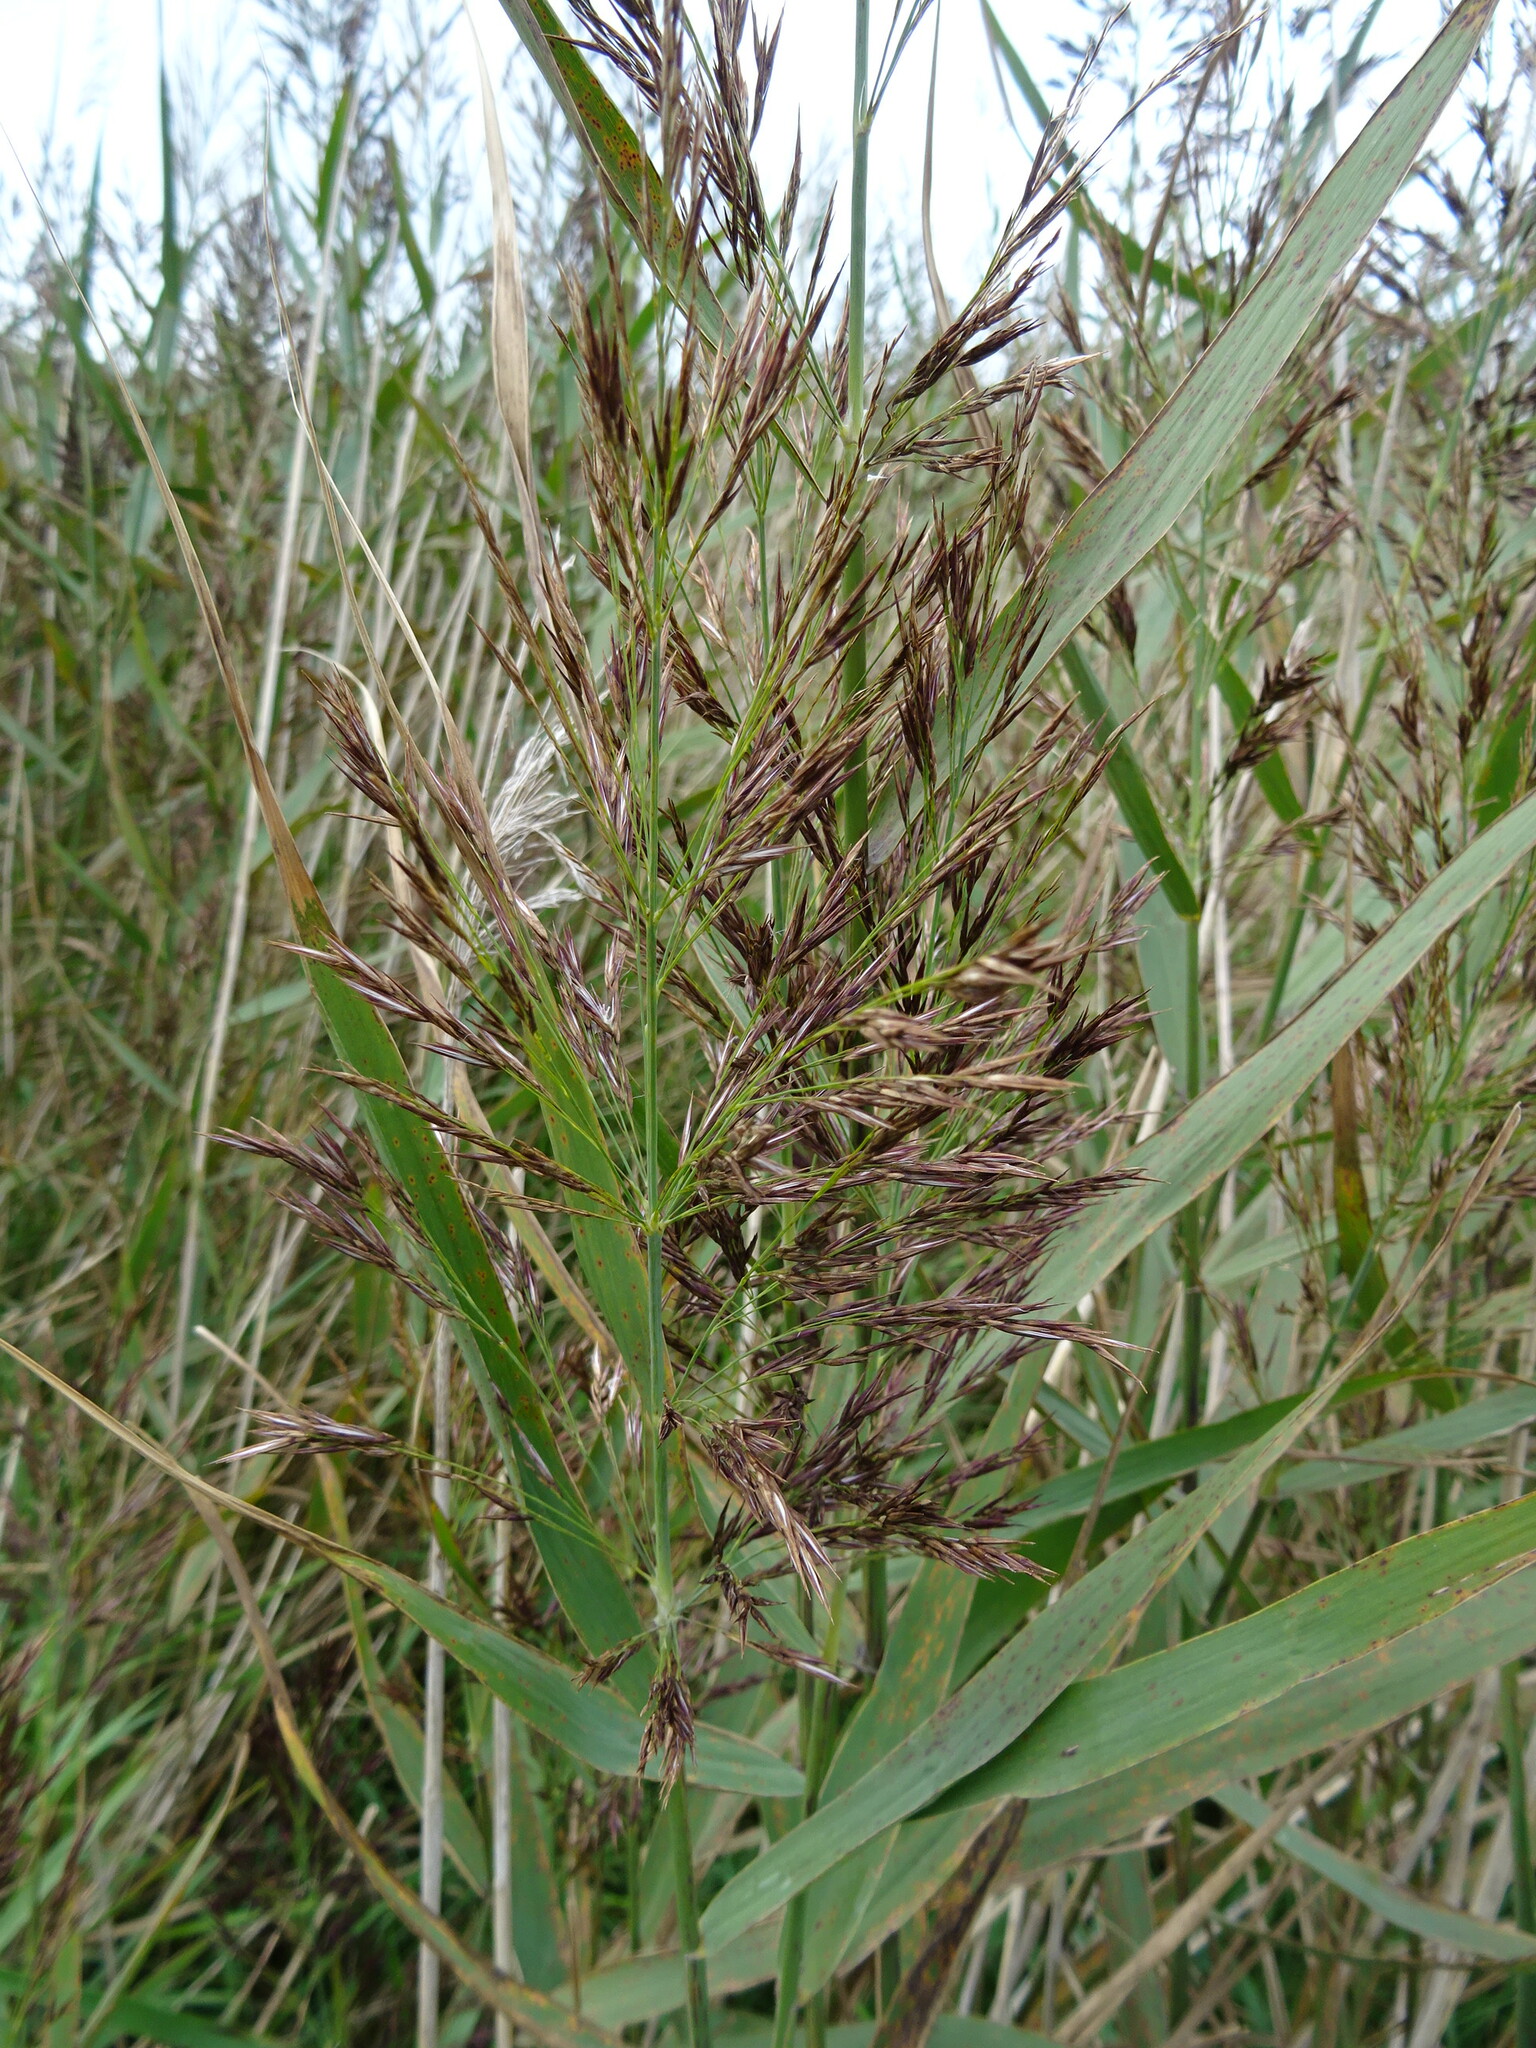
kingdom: Plantae
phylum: Tracheophyta
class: Liliopsida
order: Poales
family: Poaceae
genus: Phragmites
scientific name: Phragmites australis
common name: Common reed
